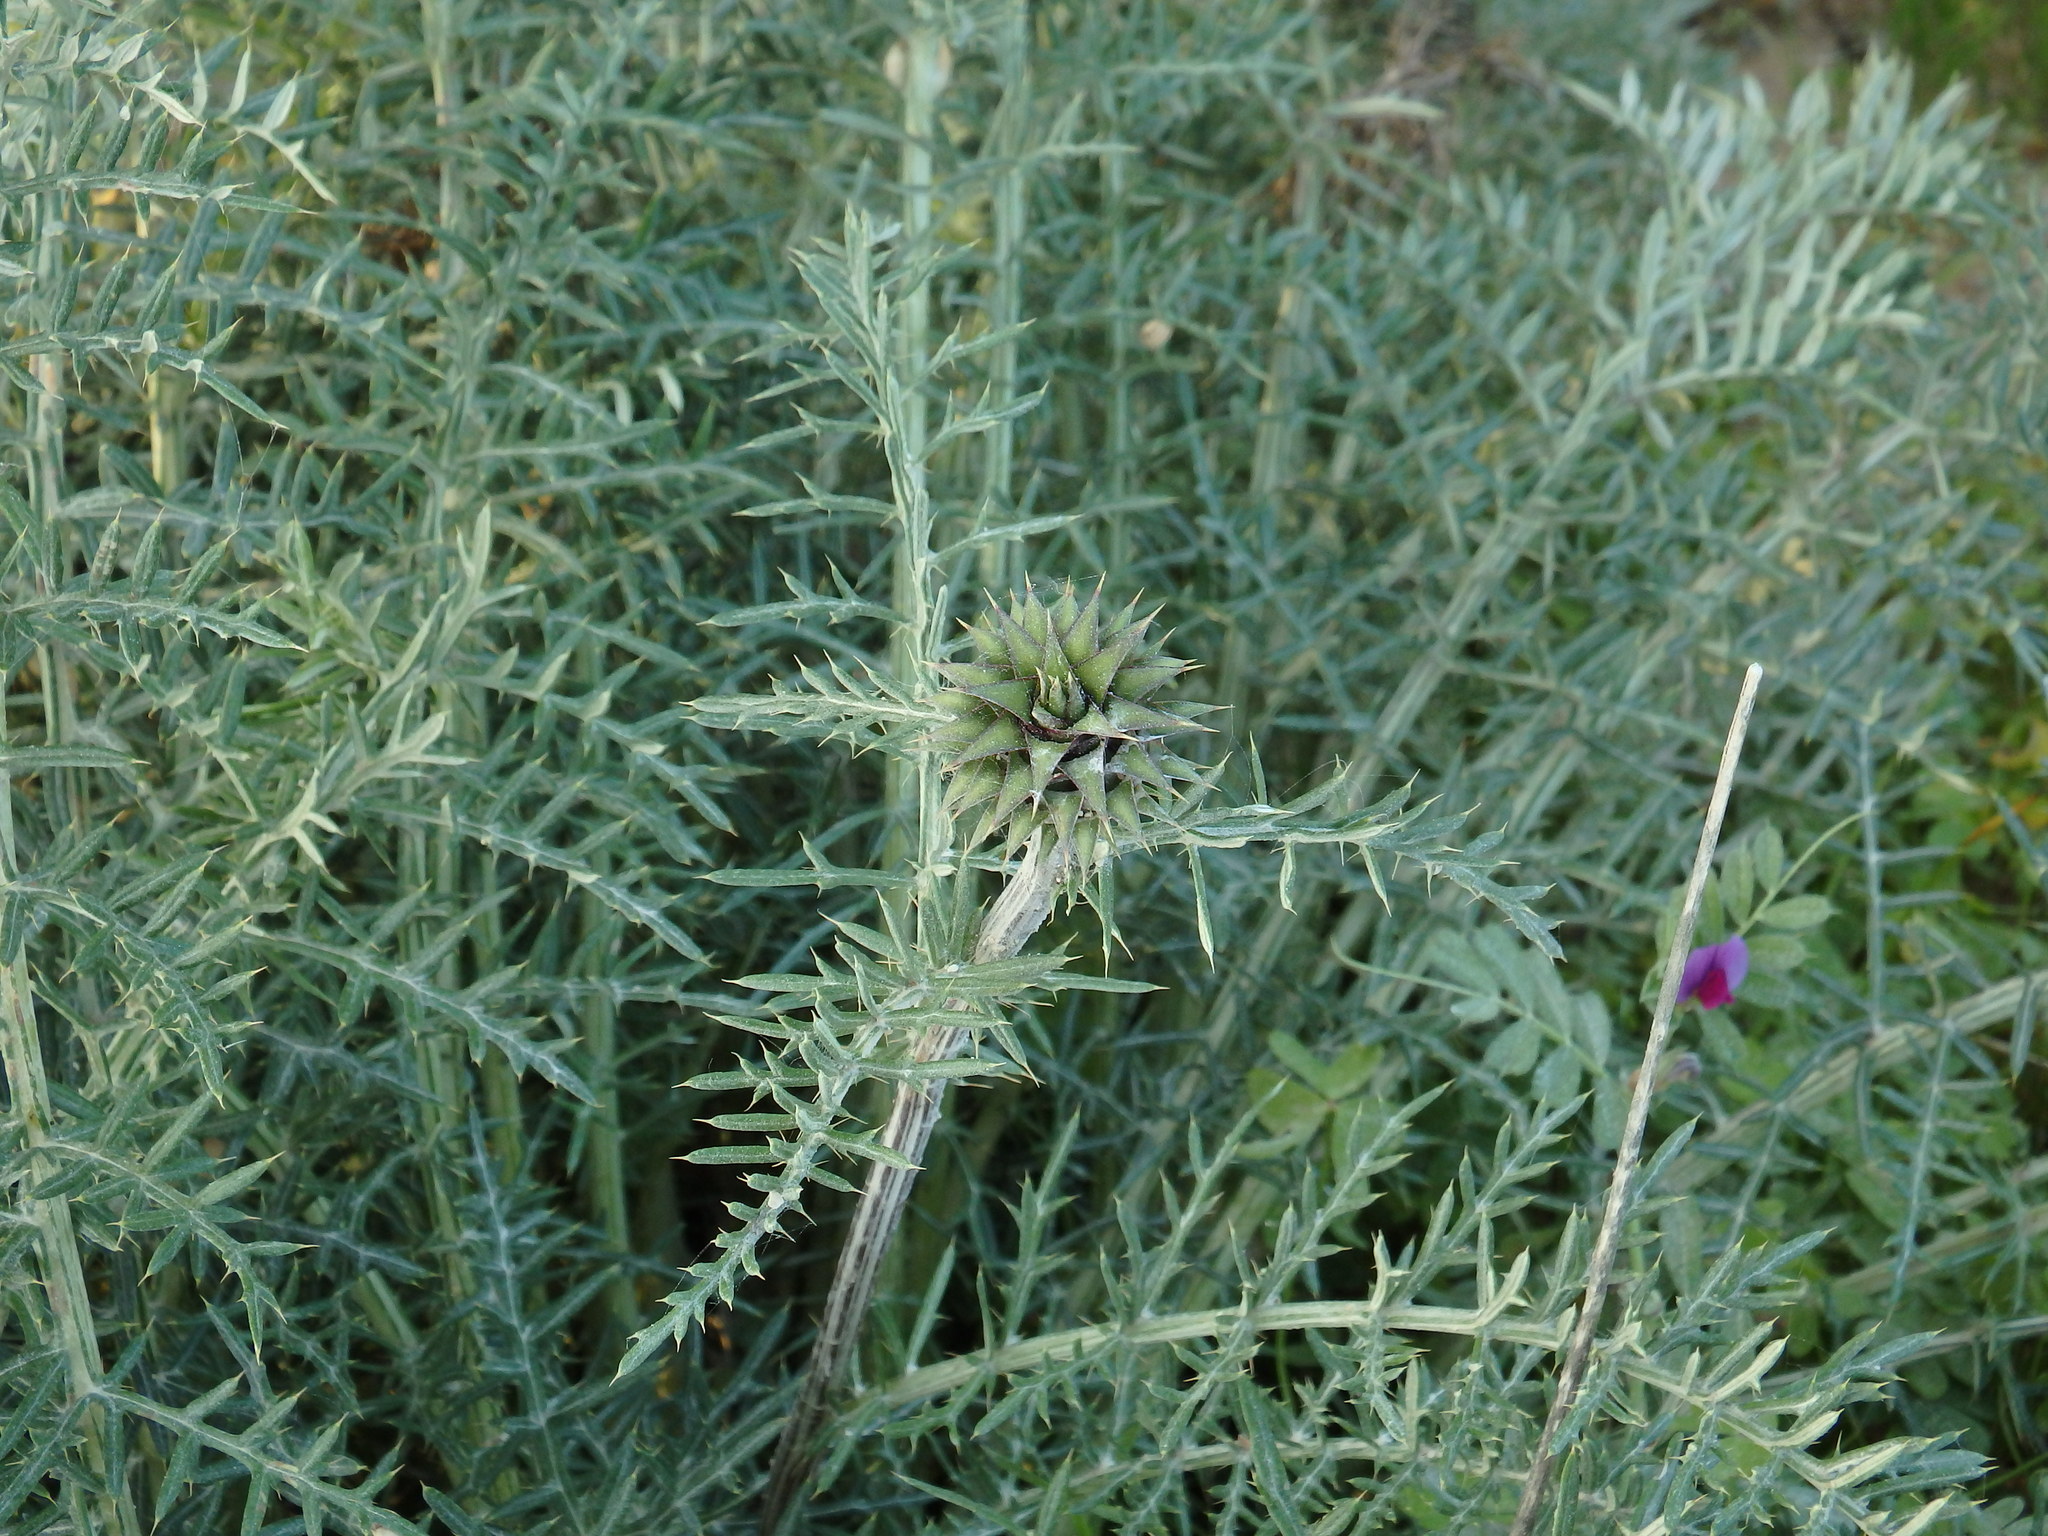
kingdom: Plantae
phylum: Tracheophyta
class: Magnoliopsida
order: Asterales
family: Asteraceae
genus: Cynara
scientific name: Cynara humilis
